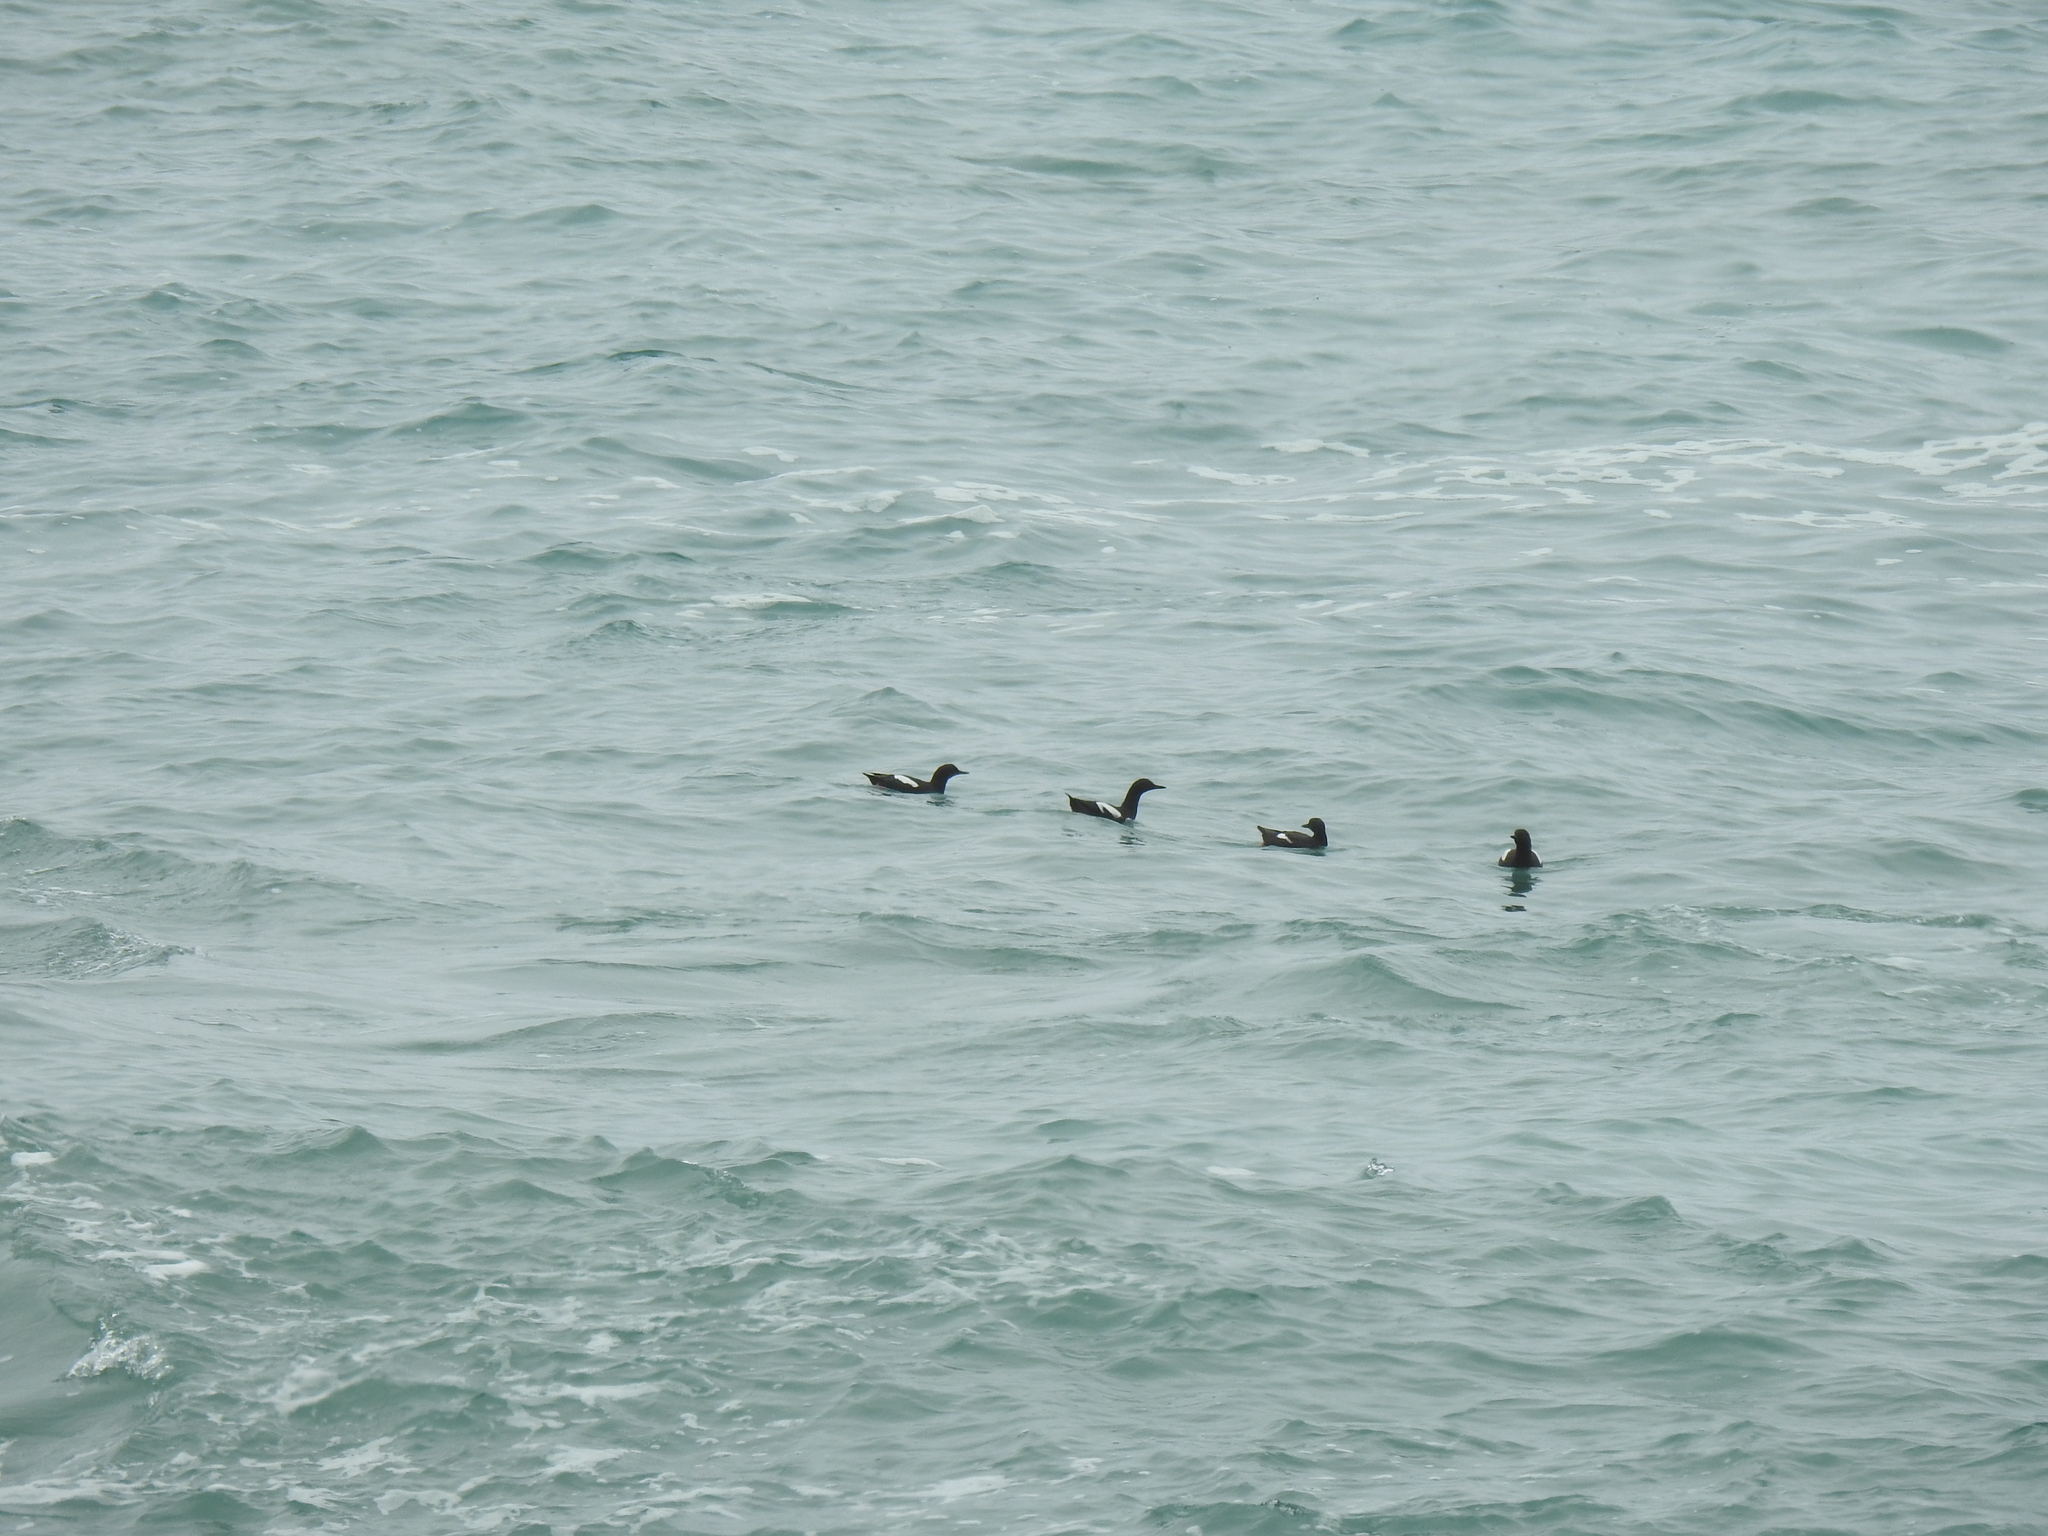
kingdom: Animalia
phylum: Chordata
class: Aves
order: Charadriiformes
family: Alcidae
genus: Cepphus
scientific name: Cepphus columba
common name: Pigeon guillemot
